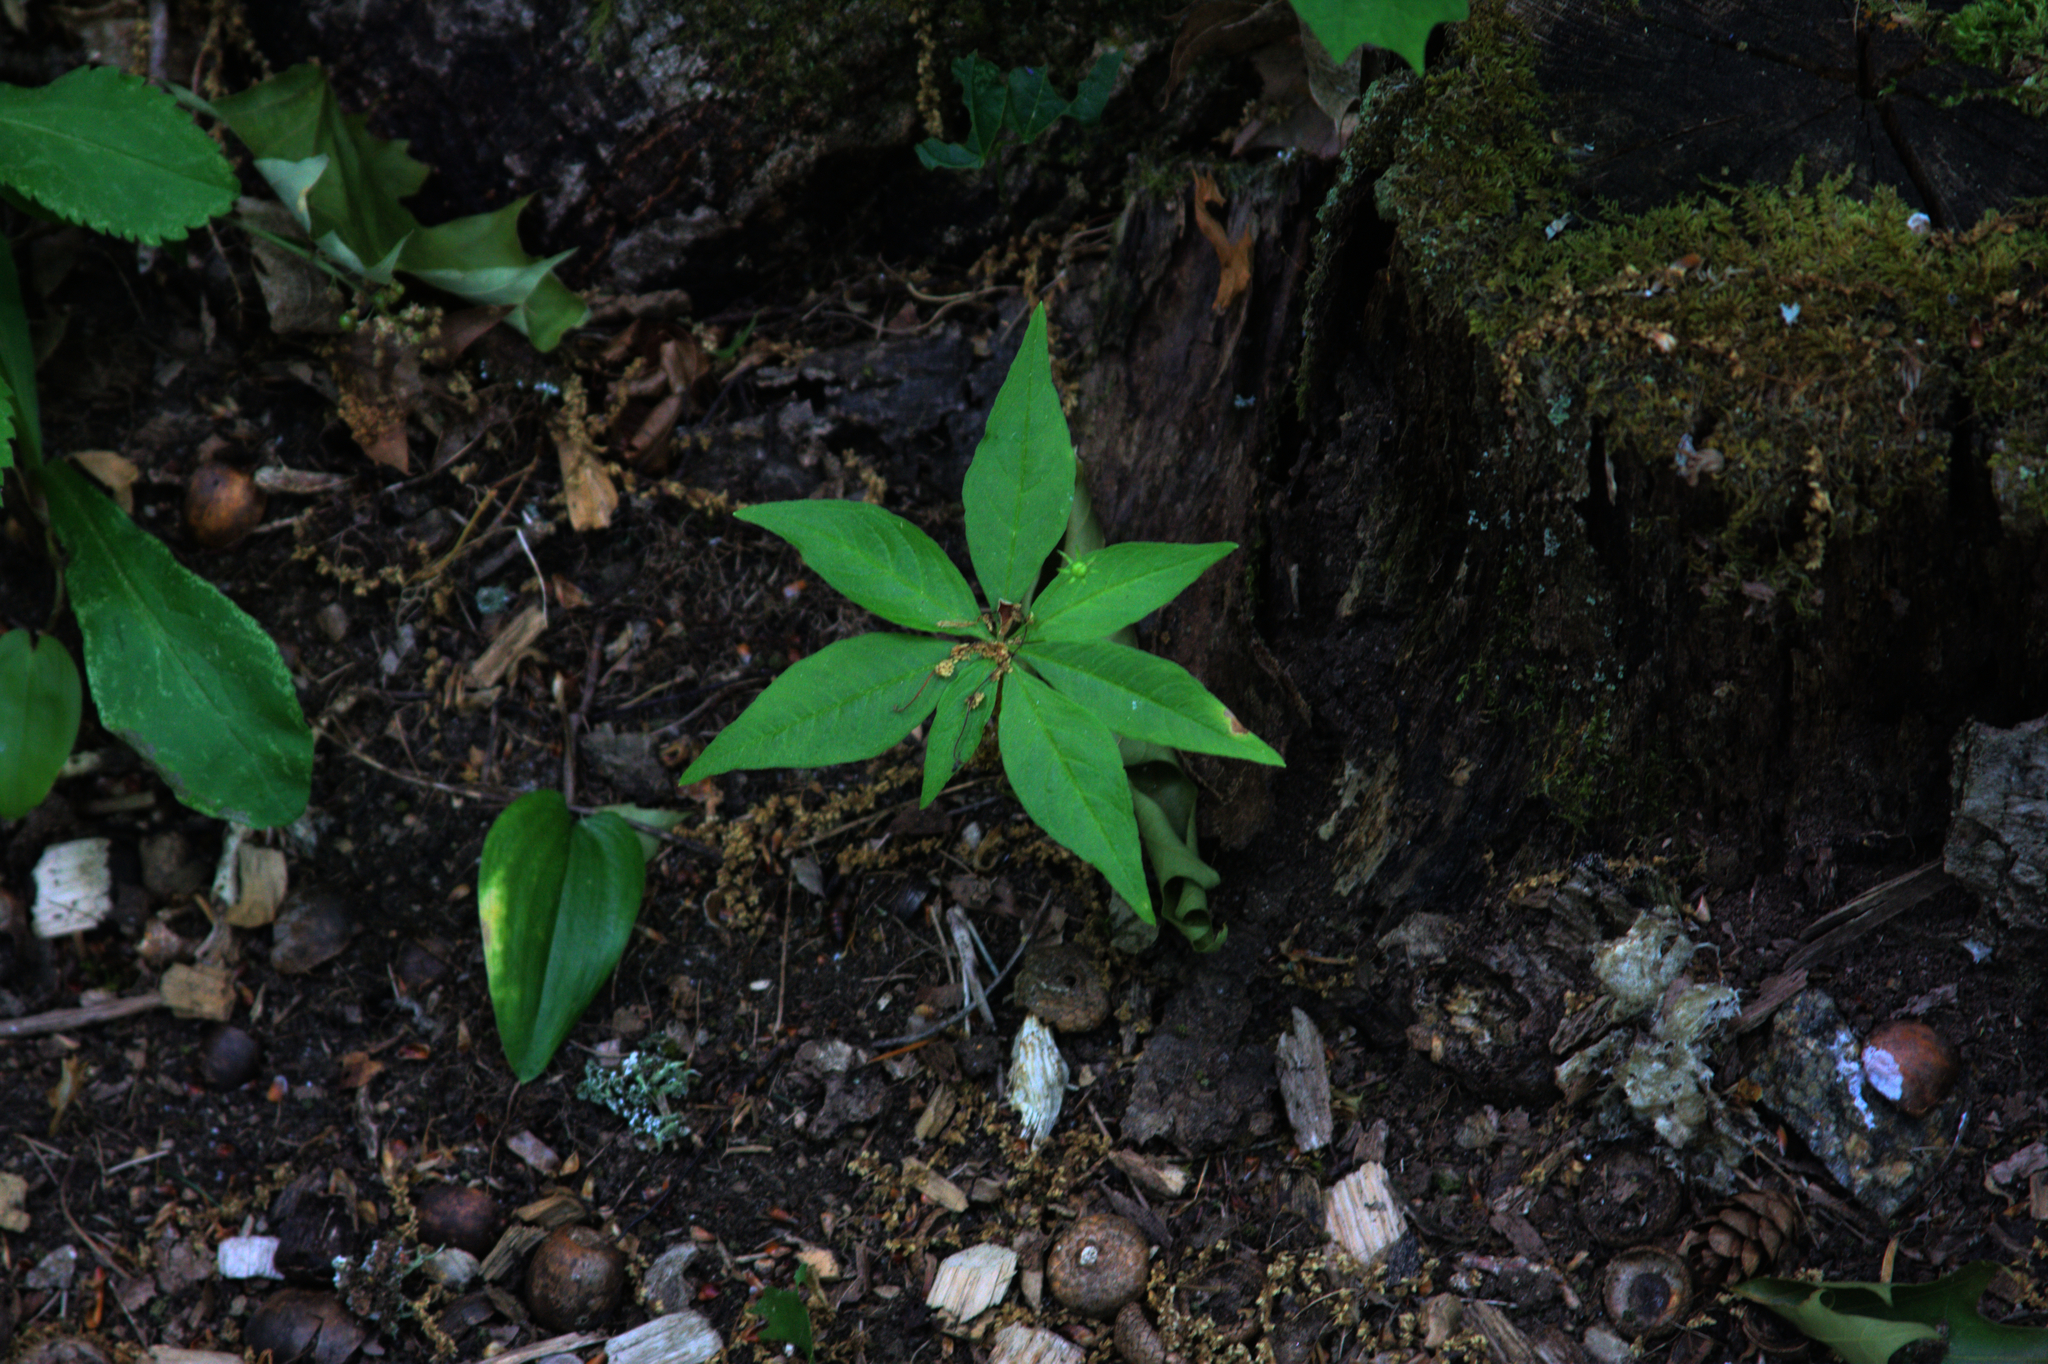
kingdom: Plantae
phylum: Tracheophyta
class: Magnoliopsida
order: Ericales
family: Primulaceae
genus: Lysimachia
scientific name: Lysimachia borealis
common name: American starflower
